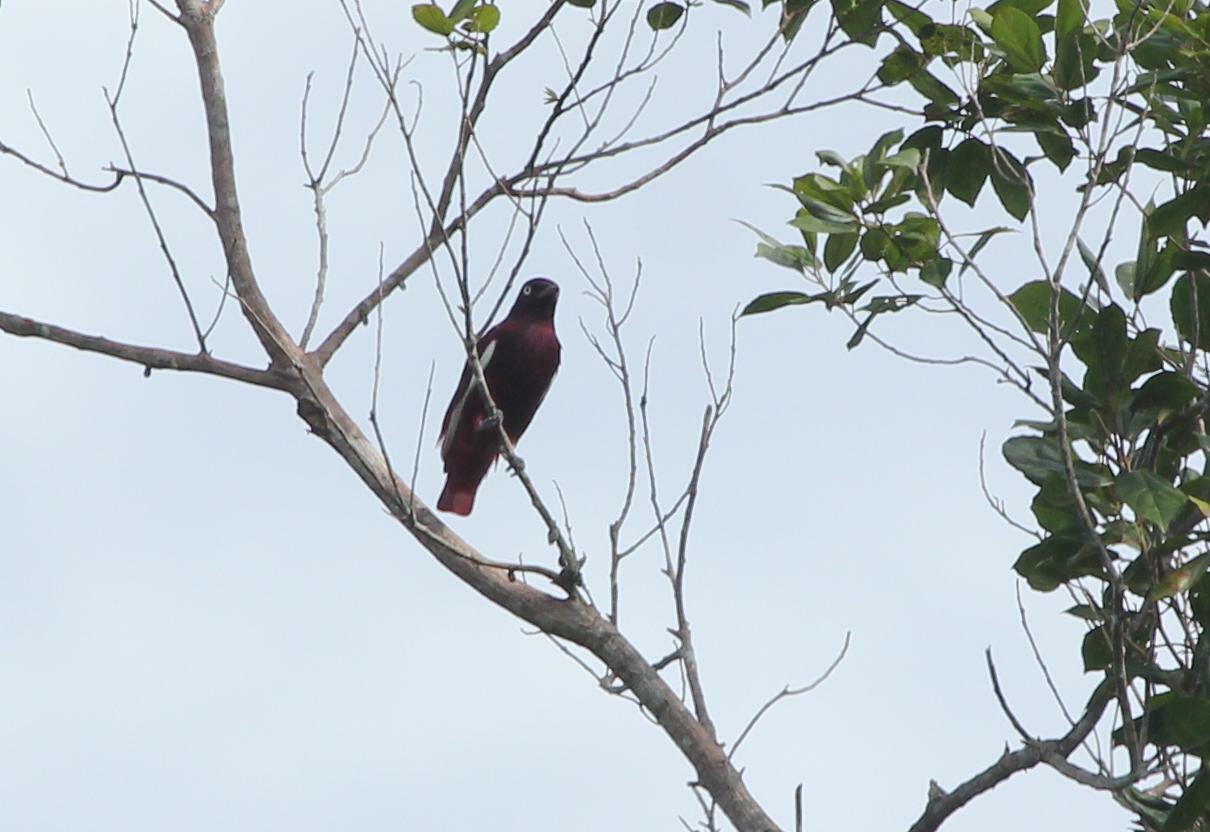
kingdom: Animalia
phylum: Chordata
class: Aves
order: Passeriformes
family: Cotingidae
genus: Xipholena
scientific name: Xipholena punicea
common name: Pompadour cotinga
